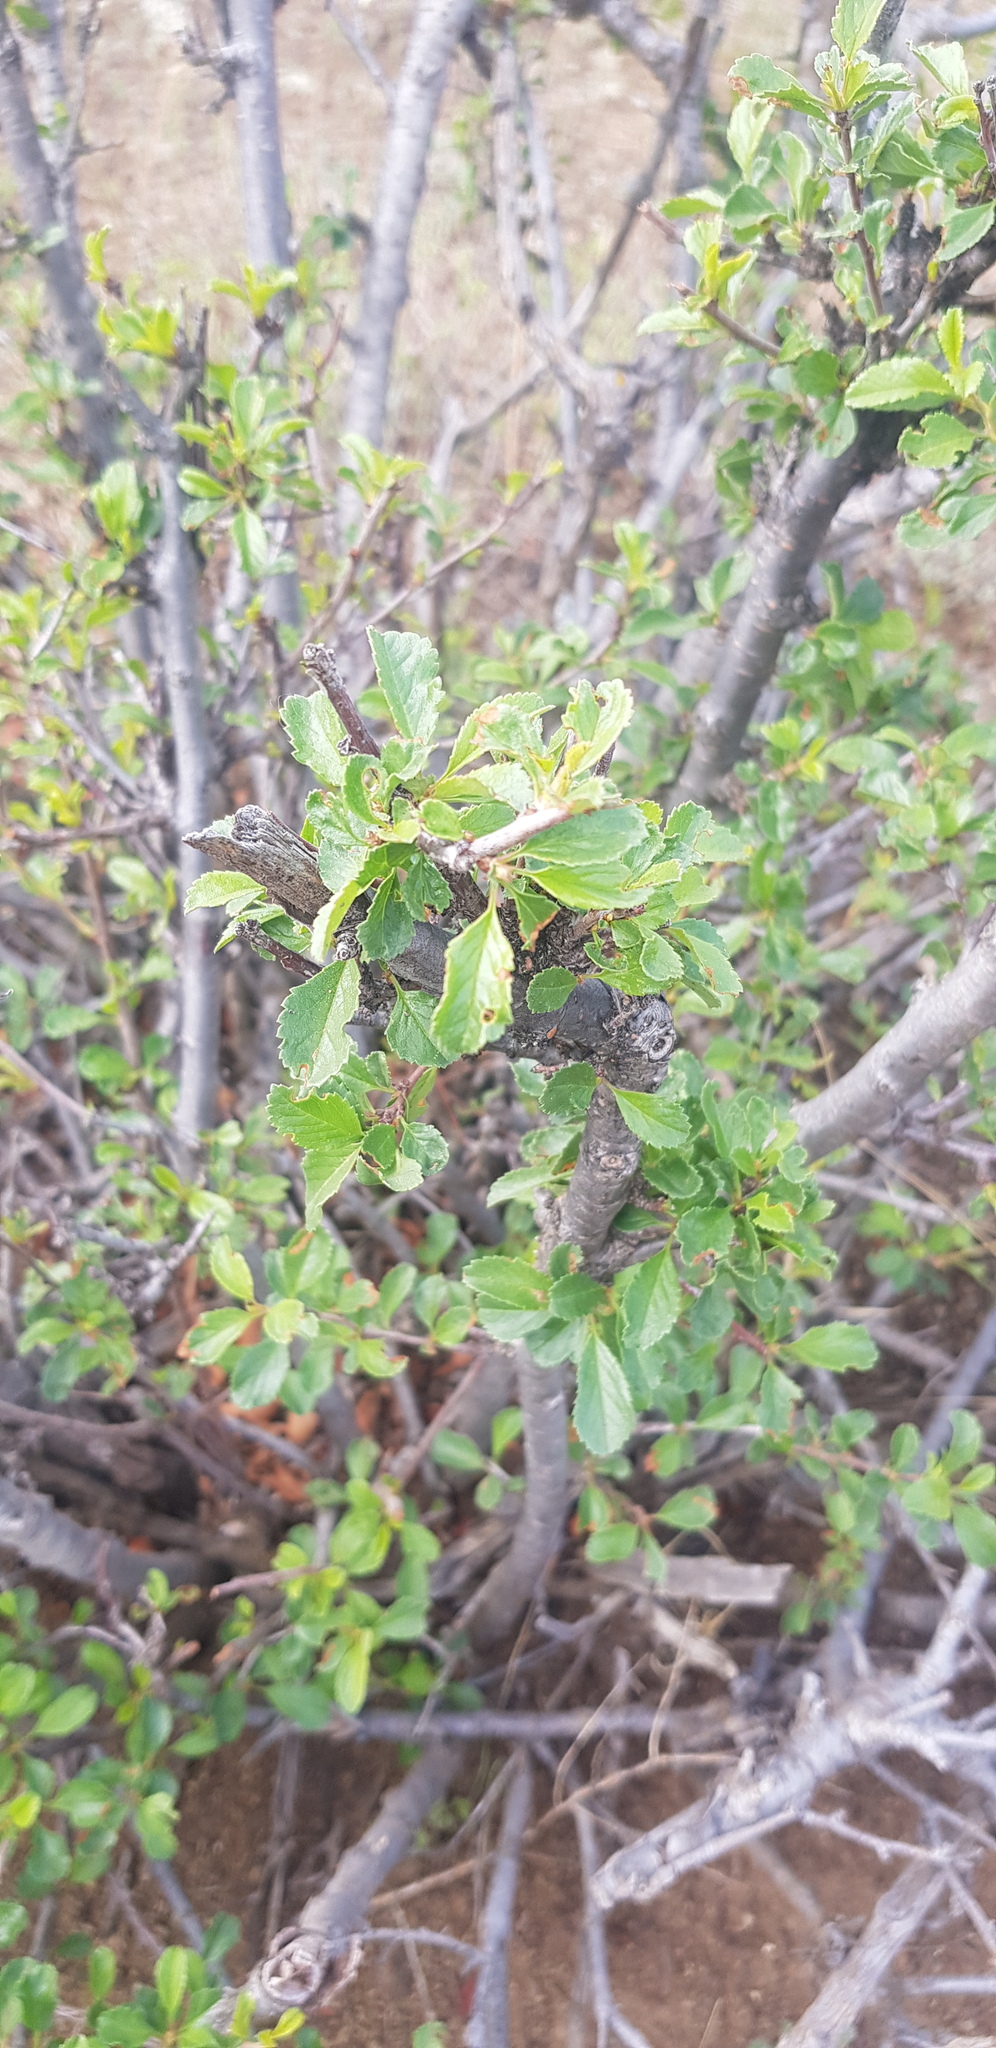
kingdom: Plantae
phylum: Tracheophyta
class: Magnoliopsida
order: Rosales
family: Rosaceae
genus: Prunus
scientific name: Prunus pedunculata
